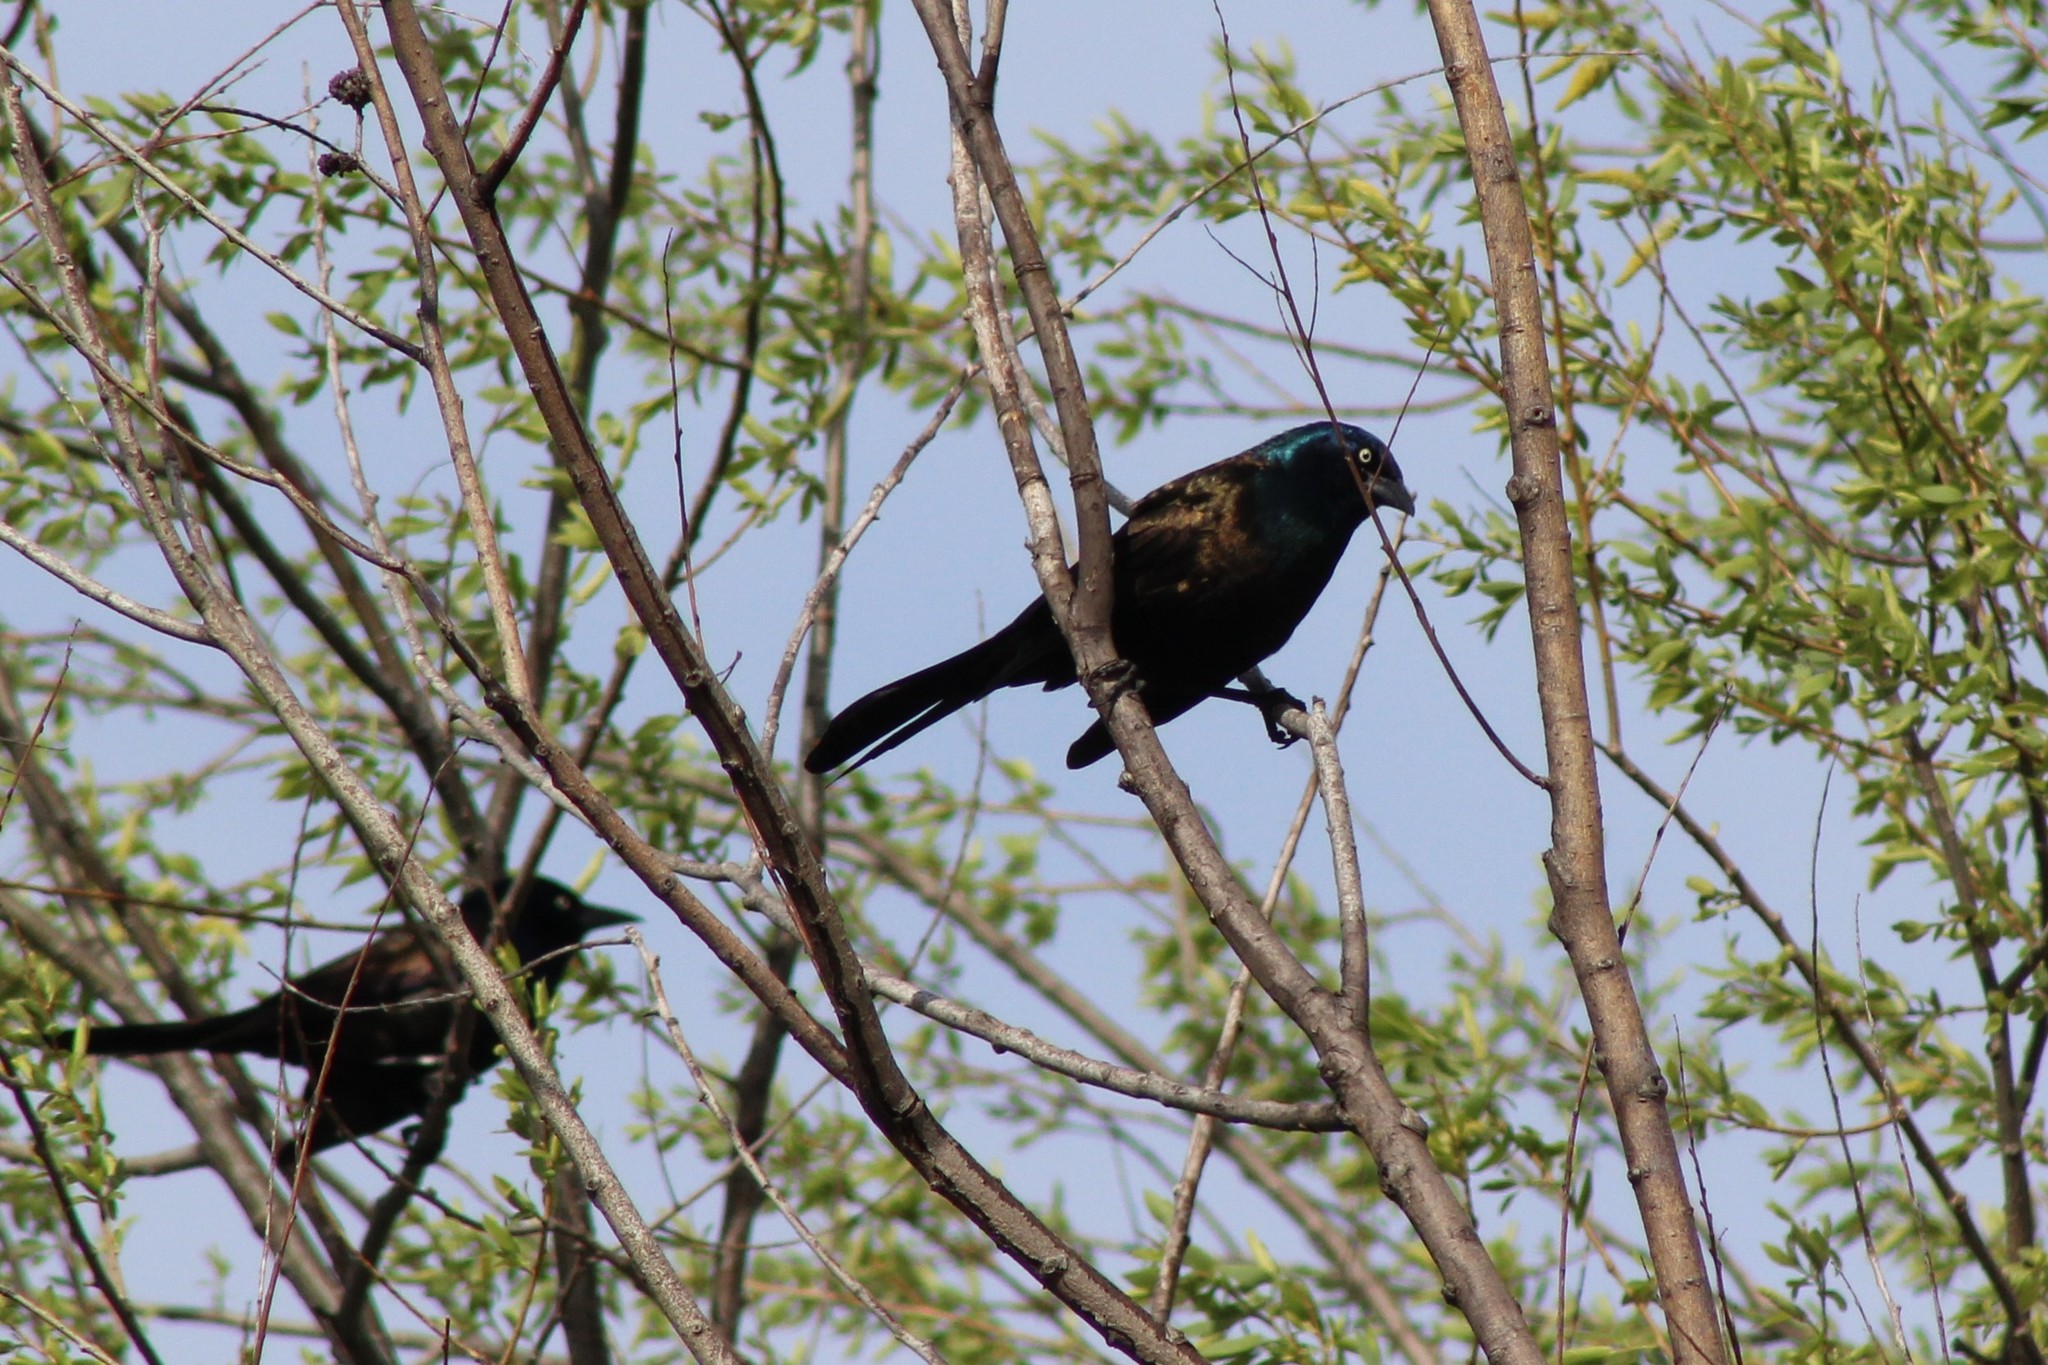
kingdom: Animalia
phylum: Chordata
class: Aves
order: Passeriformes
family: Icteridae
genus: Quiscalus
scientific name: Quiscalus quiscula
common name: Common grackle
